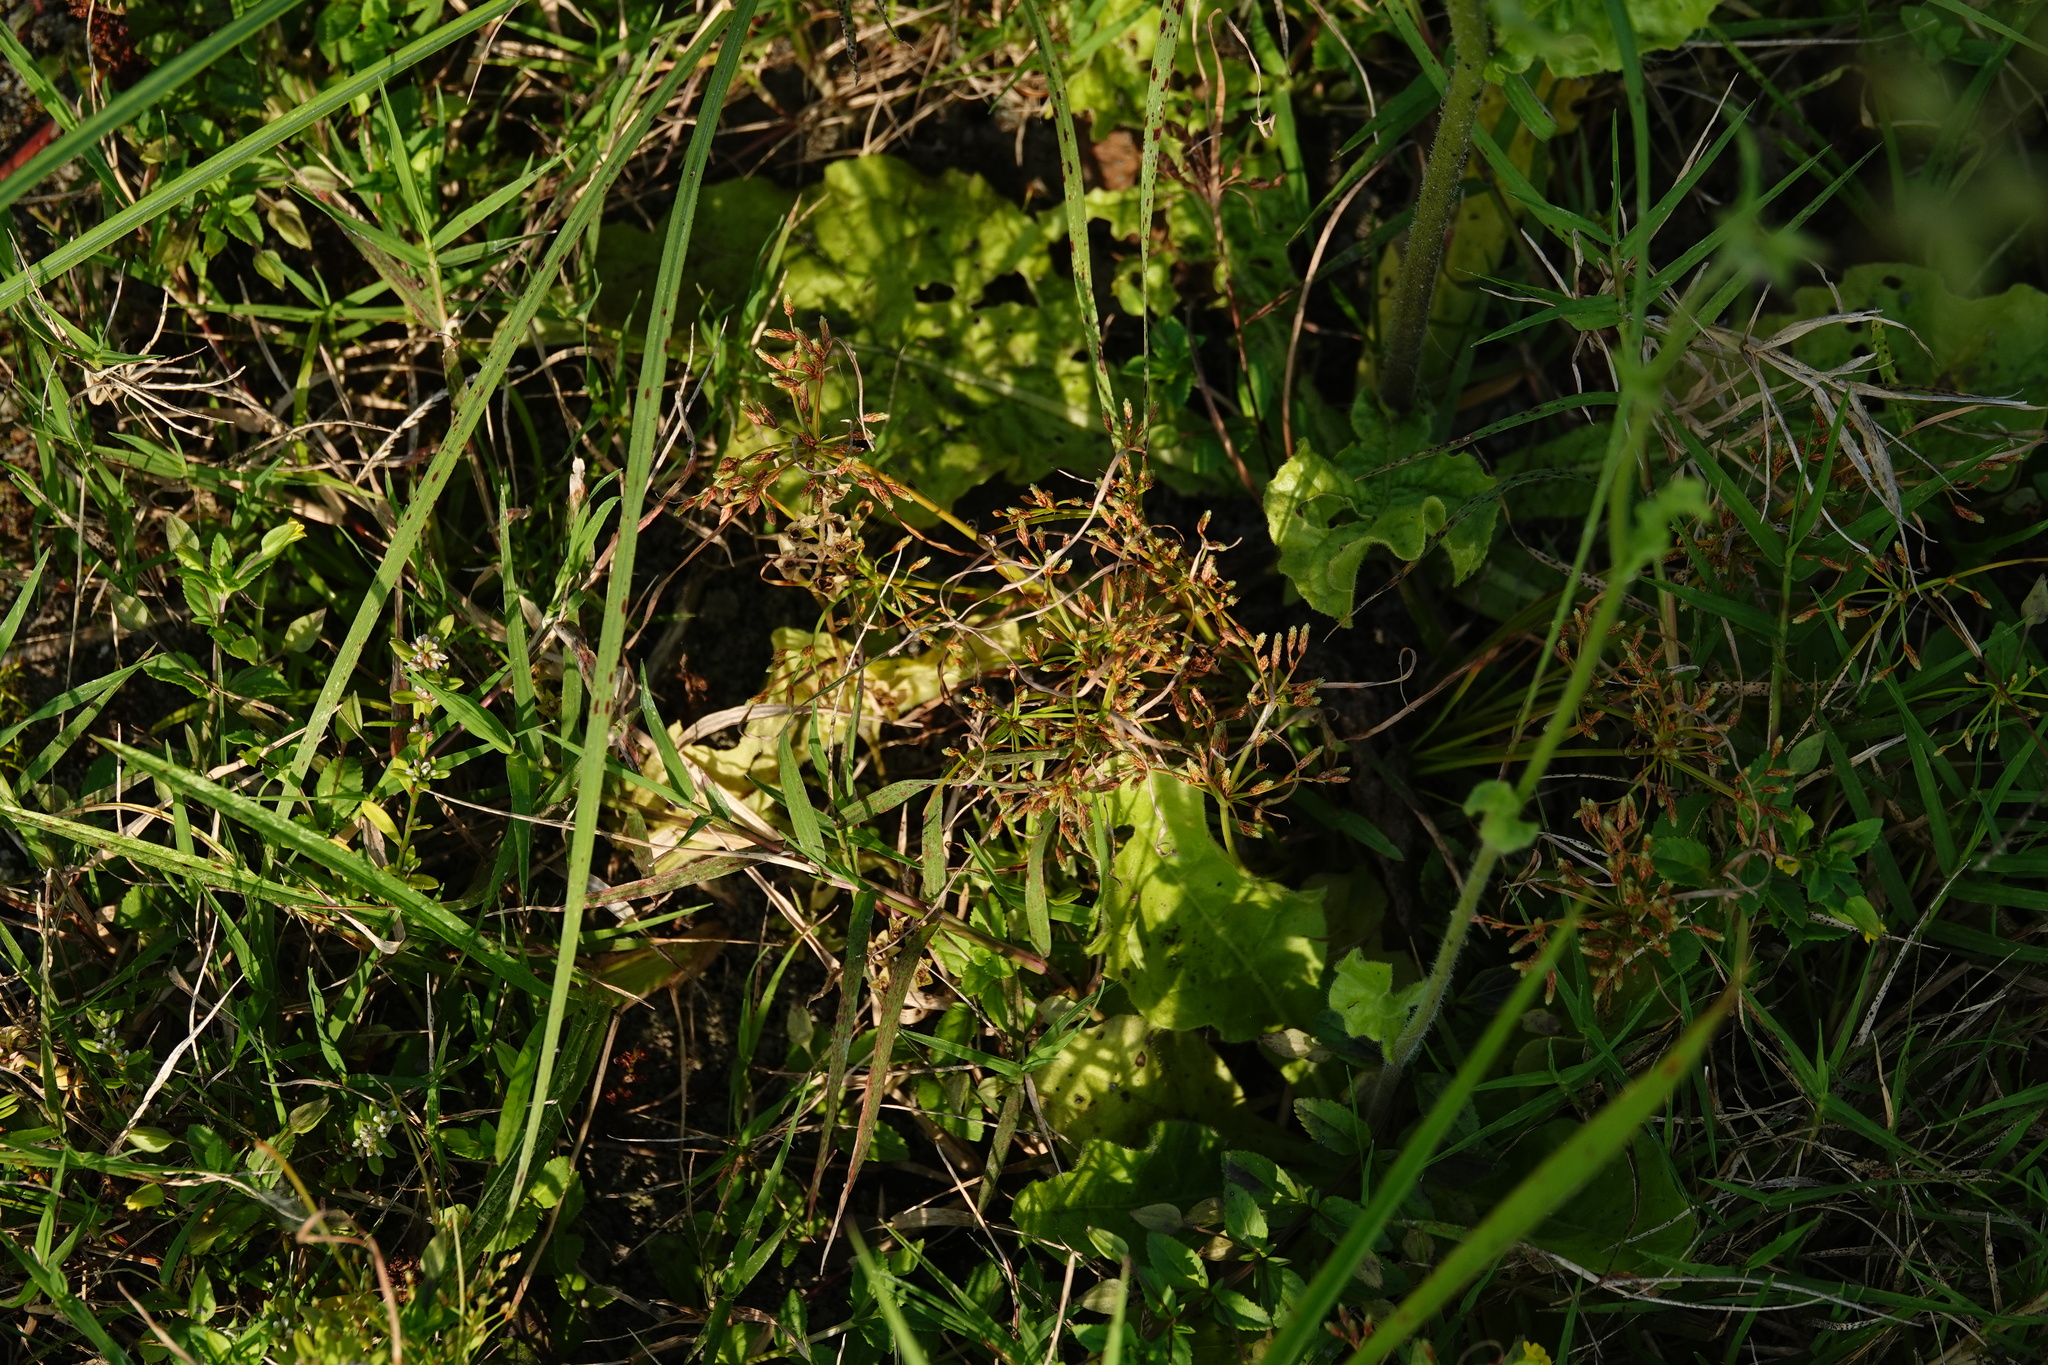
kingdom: Plantae
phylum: Tracheophyta
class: Liliopsida
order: Poales
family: Cyperaceae
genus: Fimbristylis
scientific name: Fimbristylis bisumbellata
